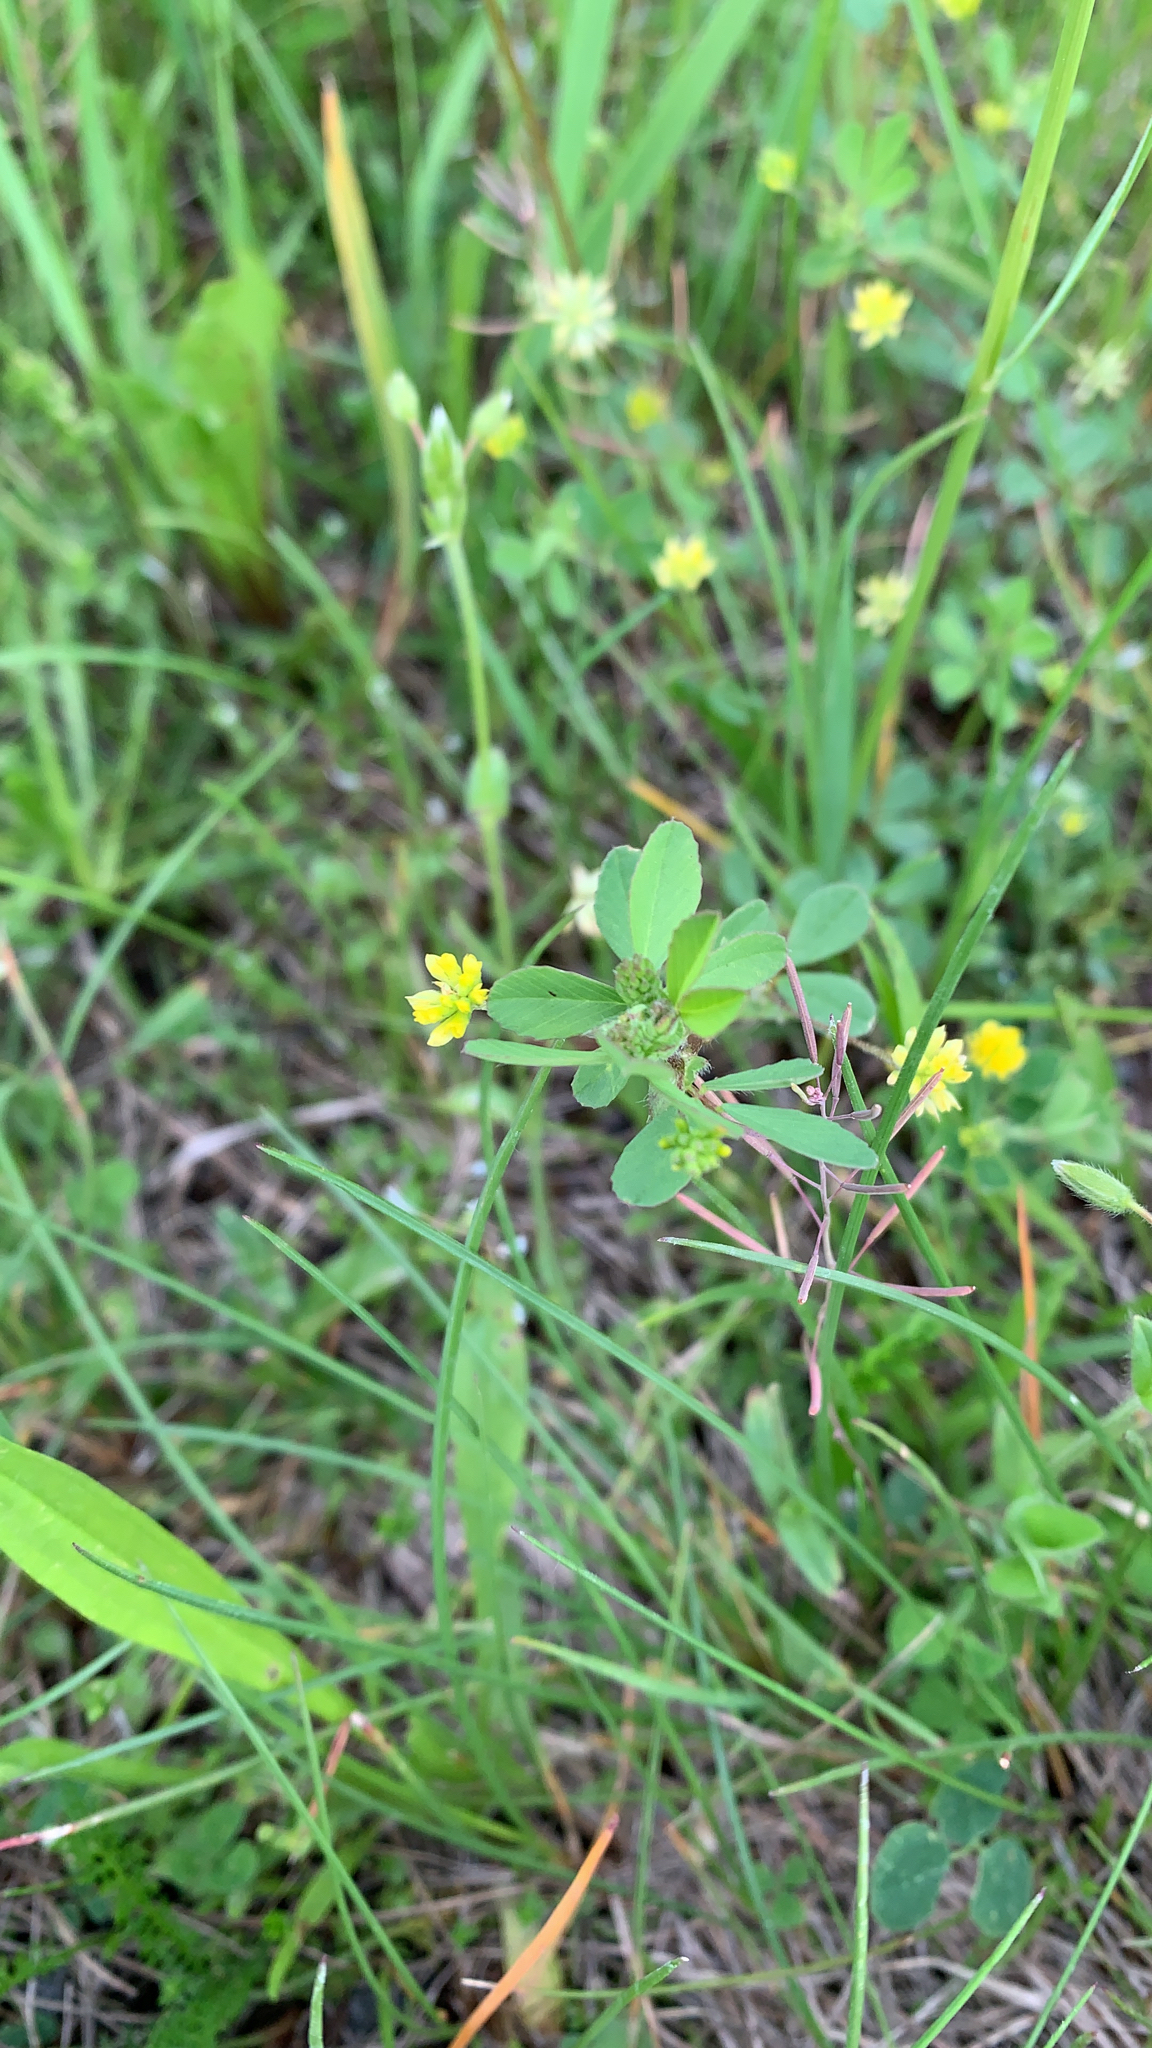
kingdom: Plantae
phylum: Tracheophyta
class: Magnoliopsida
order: Fabales
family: Fabaceae
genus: Trifolium
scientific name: Trifolium dubium
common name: Suckling clover
